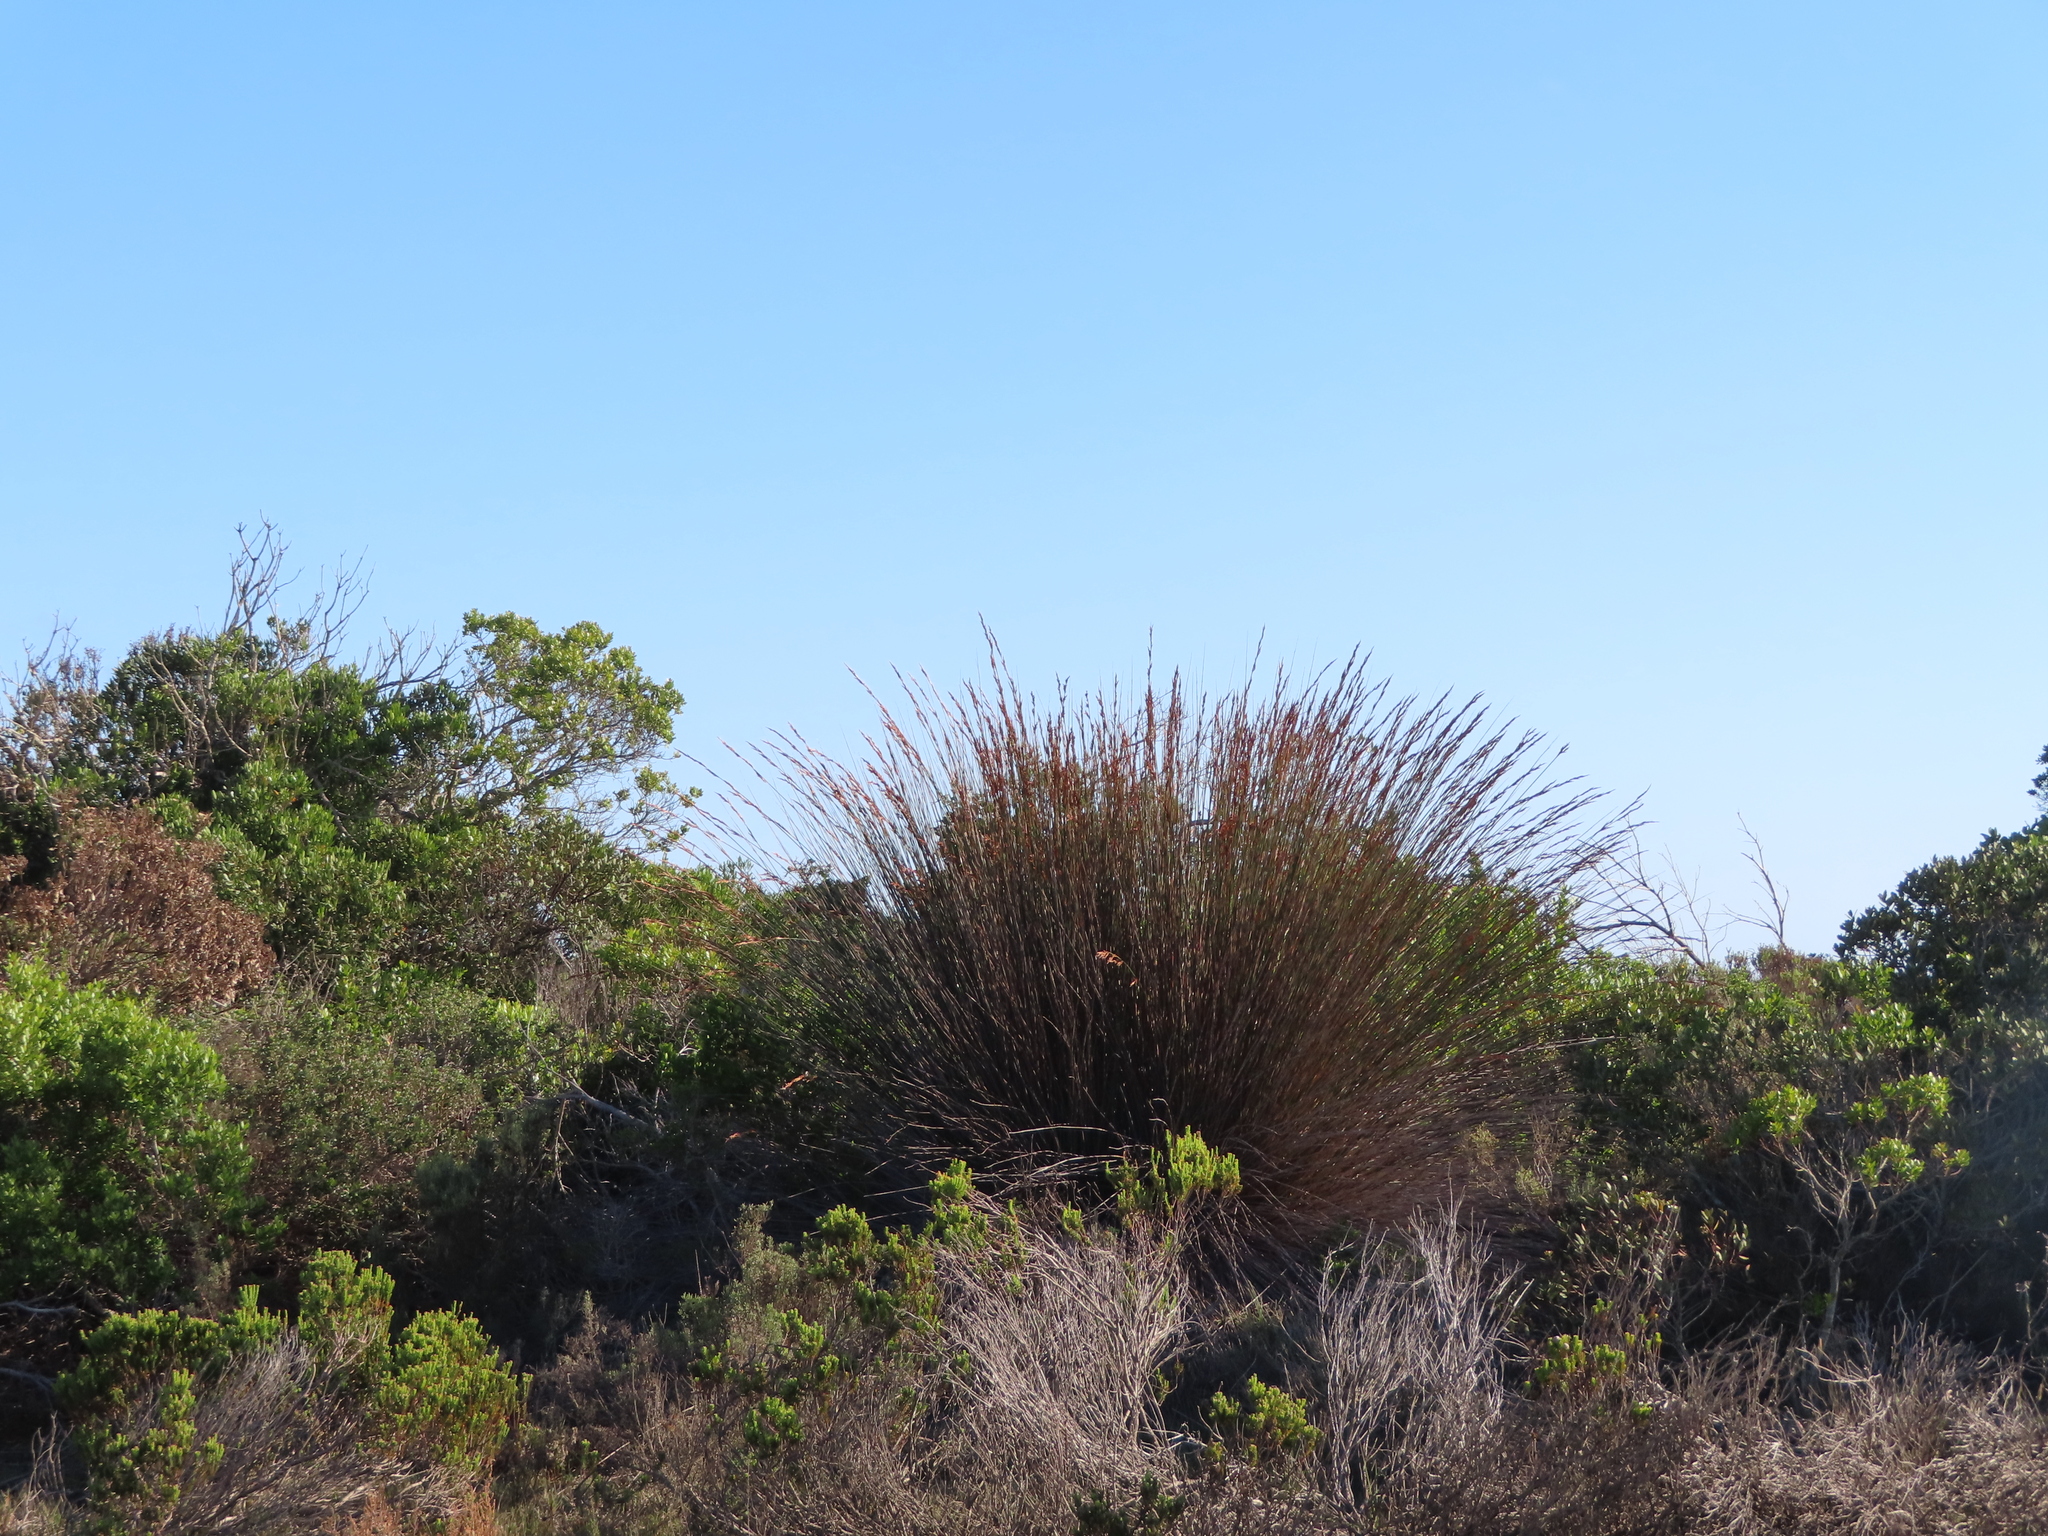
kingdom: Plantae
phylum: Tracheophyta
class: Liliopsida
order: Poales
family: Restionaceae
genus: Thamnochortus
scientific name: Thamnochortus insignis
